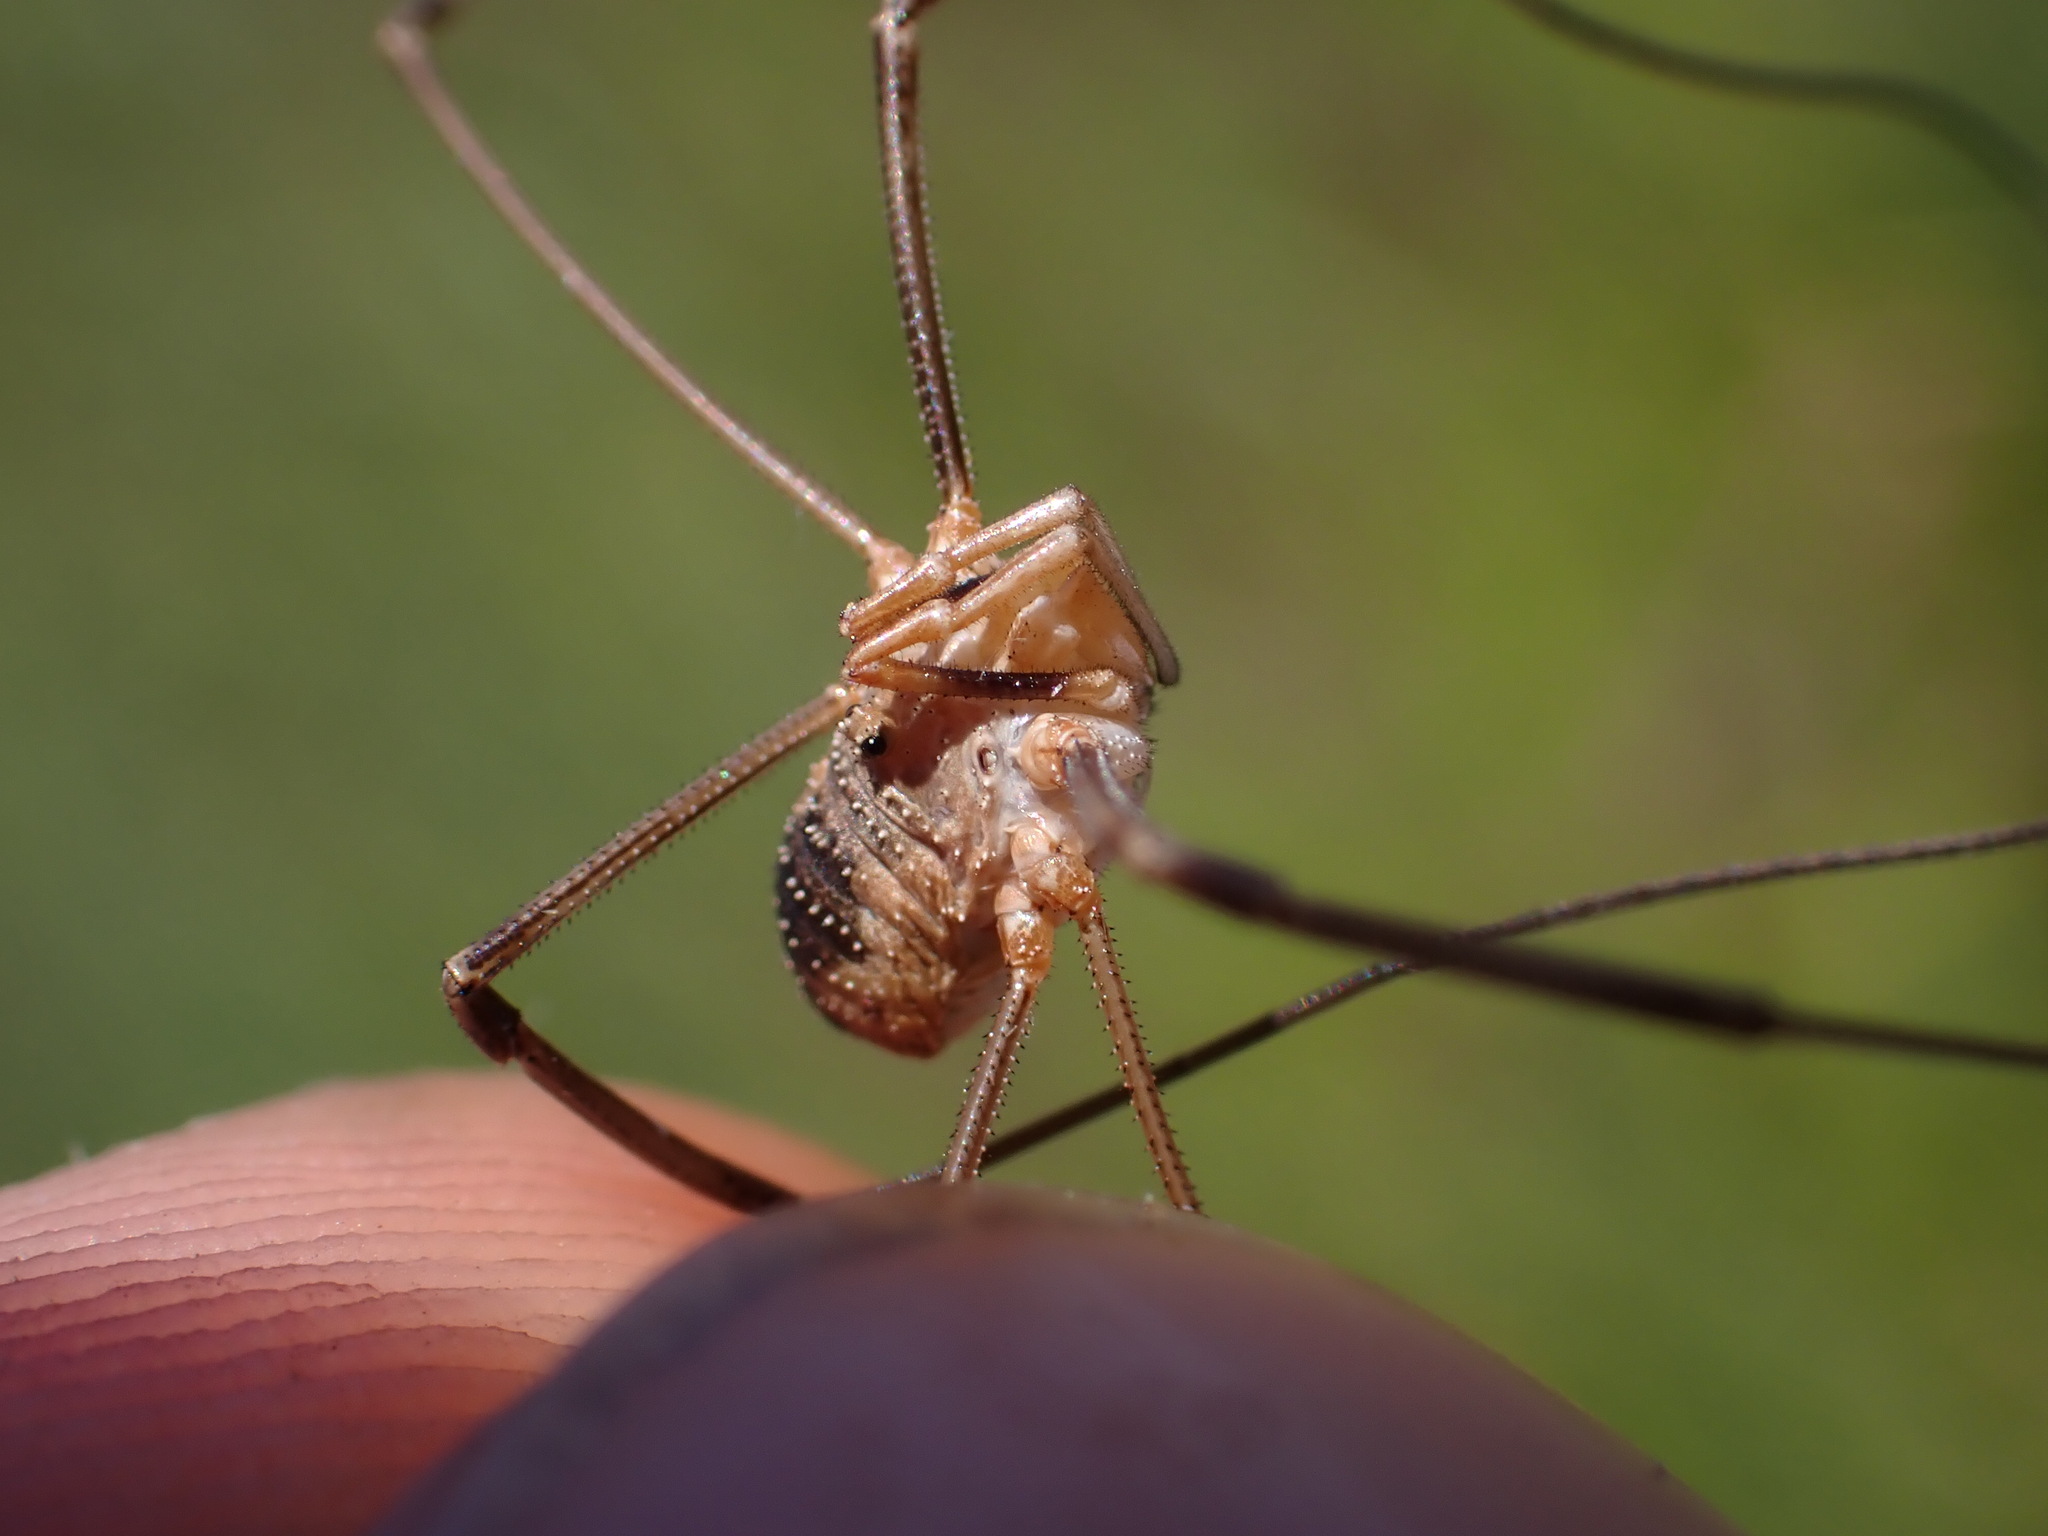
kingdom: Animalia
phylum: Arthropoda
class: Arachnida
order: Opiliones
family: Phalangiidae
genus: Phalangium
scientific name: Phalangium opilio
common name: Daddy longleg
